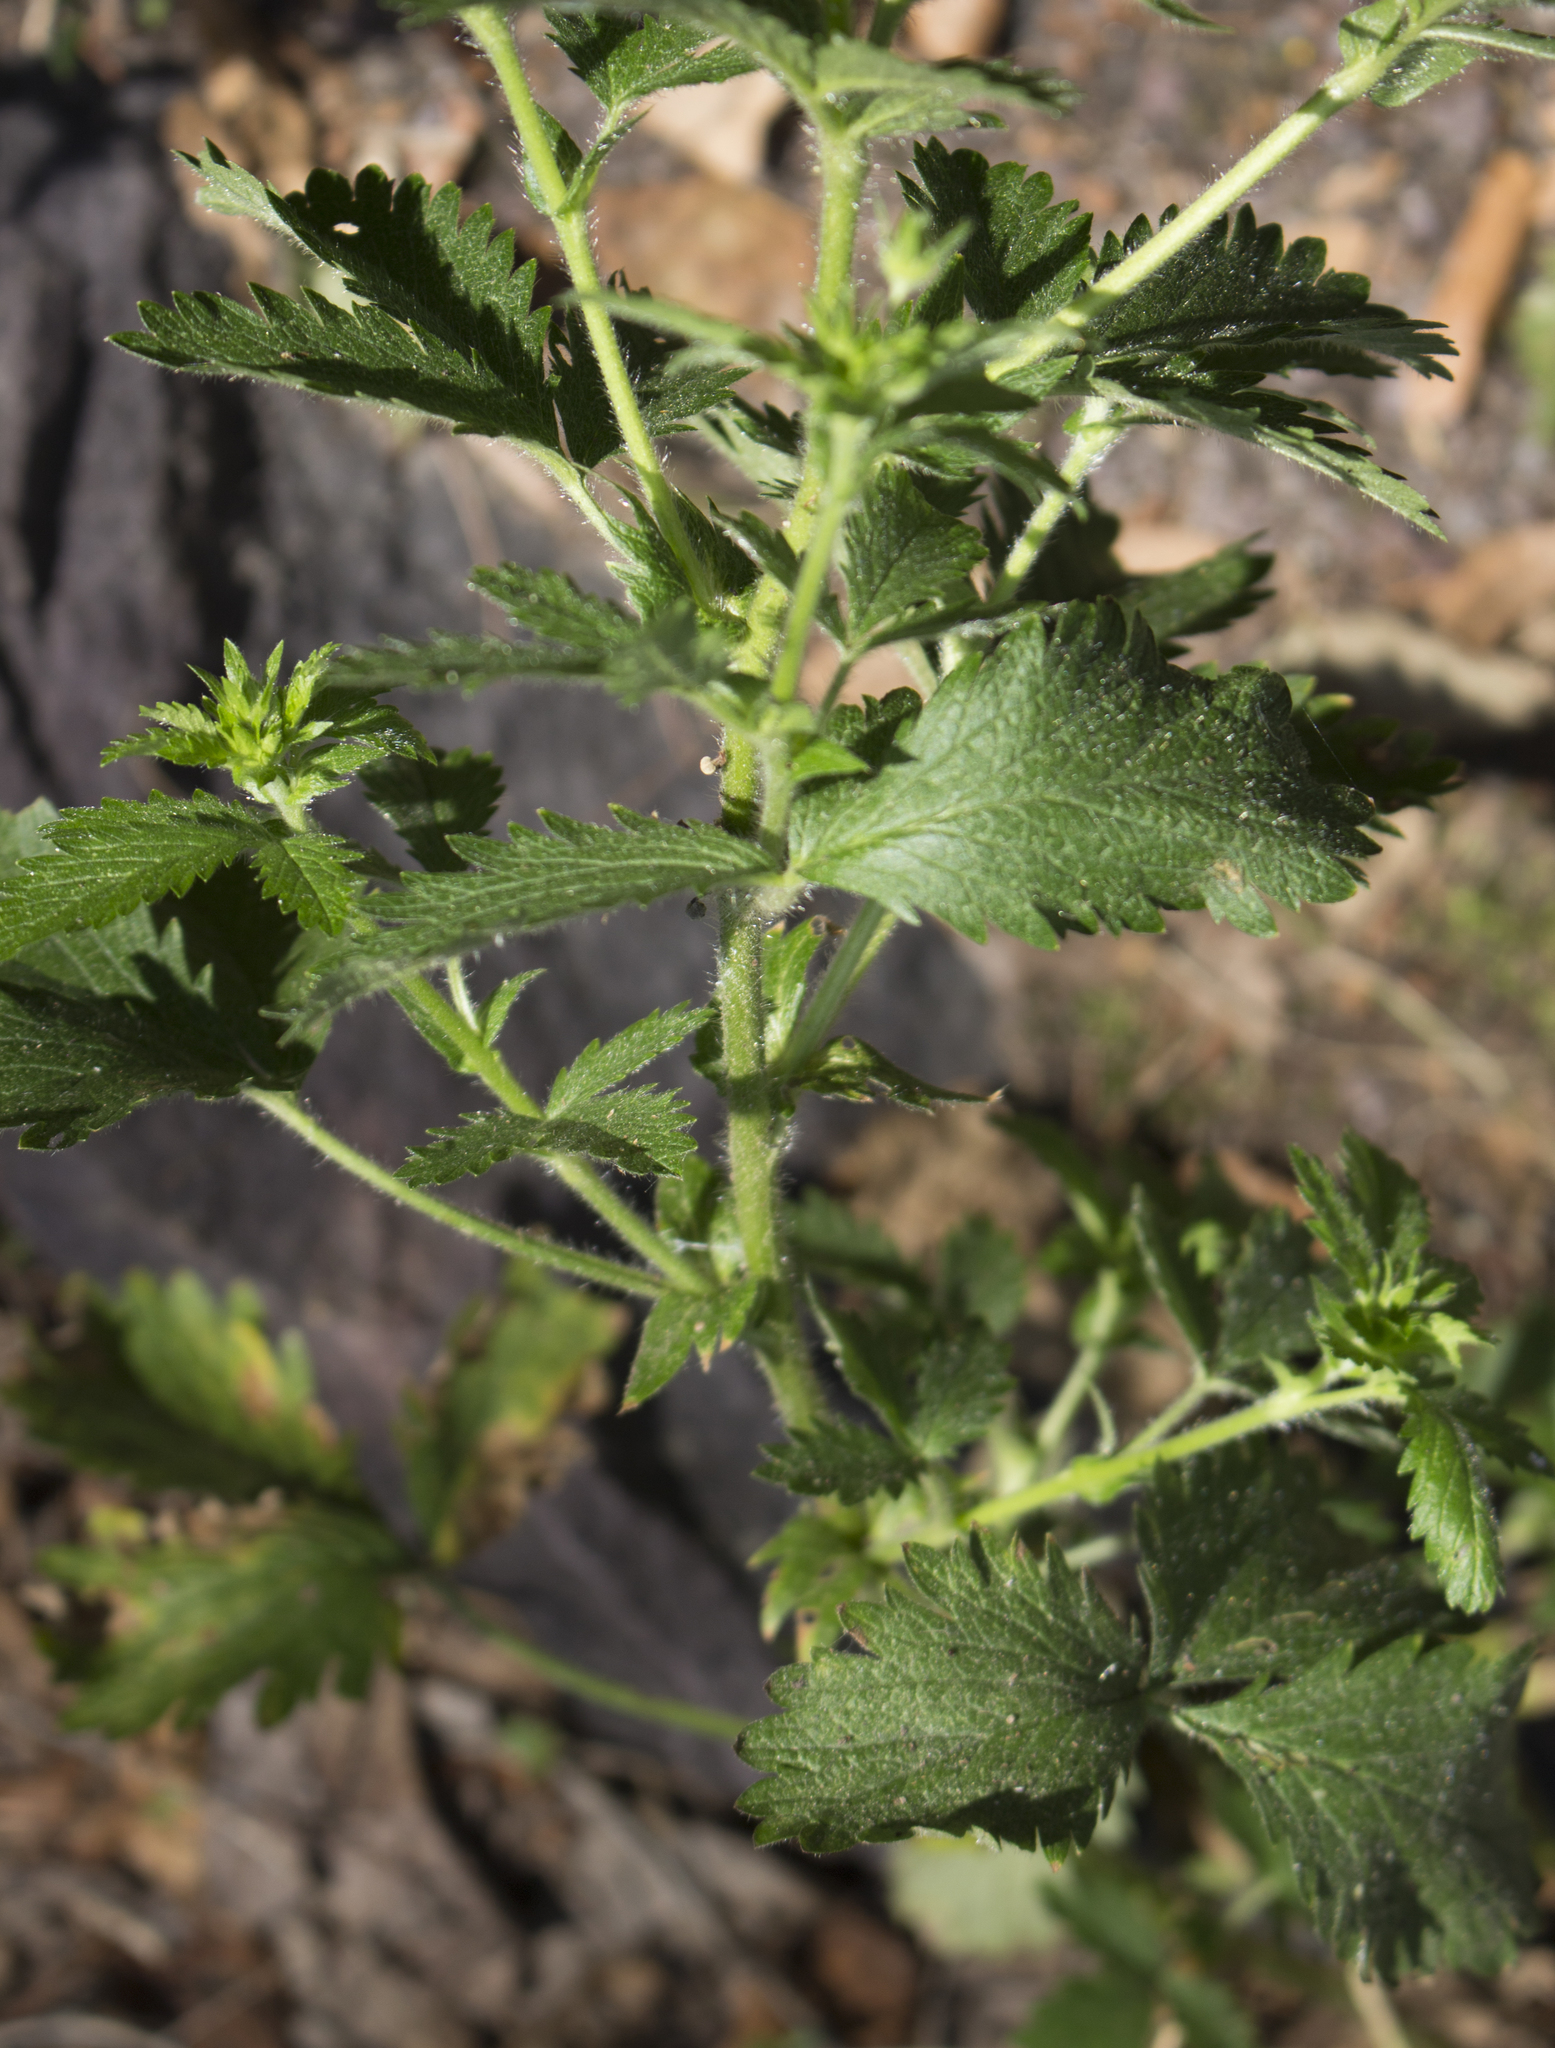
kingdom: Plantae
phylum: Tracheophyta
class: Magnoliopsida
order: Rosales
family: Rosaceae
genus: Potentilla
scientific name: Potentilla norvegica
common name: Ternate-leaved cinquefoil
